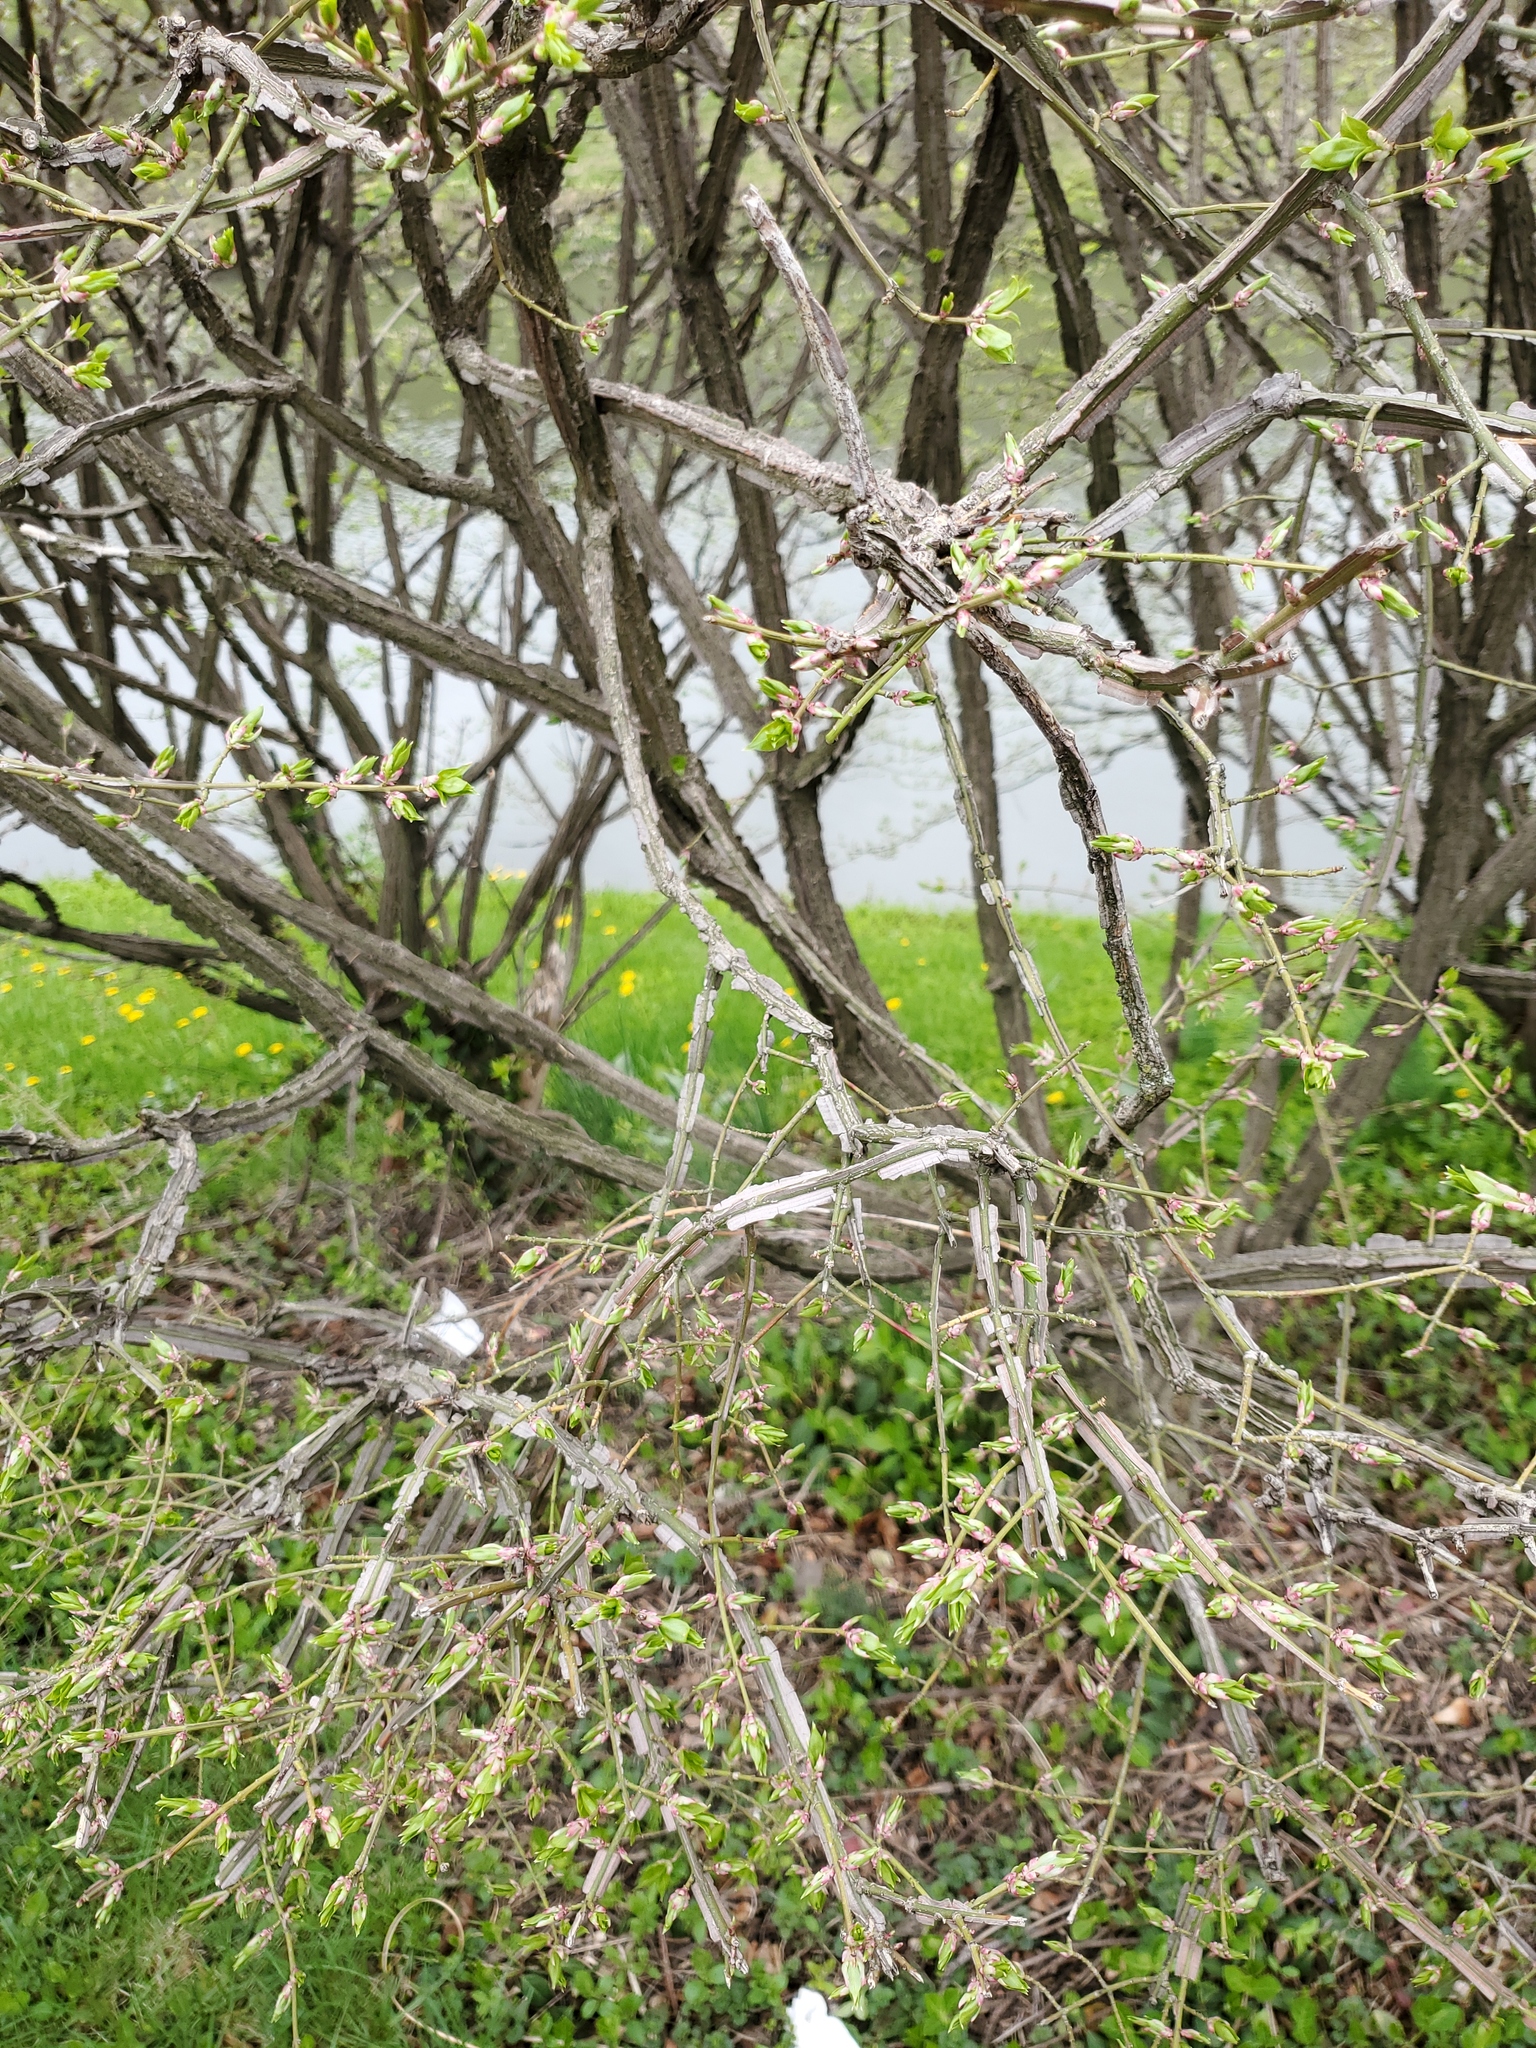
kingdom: Plantae
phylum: Tracheophyta
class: Magnoliopsida
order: Celastrales
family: Celastraceae
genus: Euonymus
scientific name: Euonymus alatus
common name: Winged euonymus
